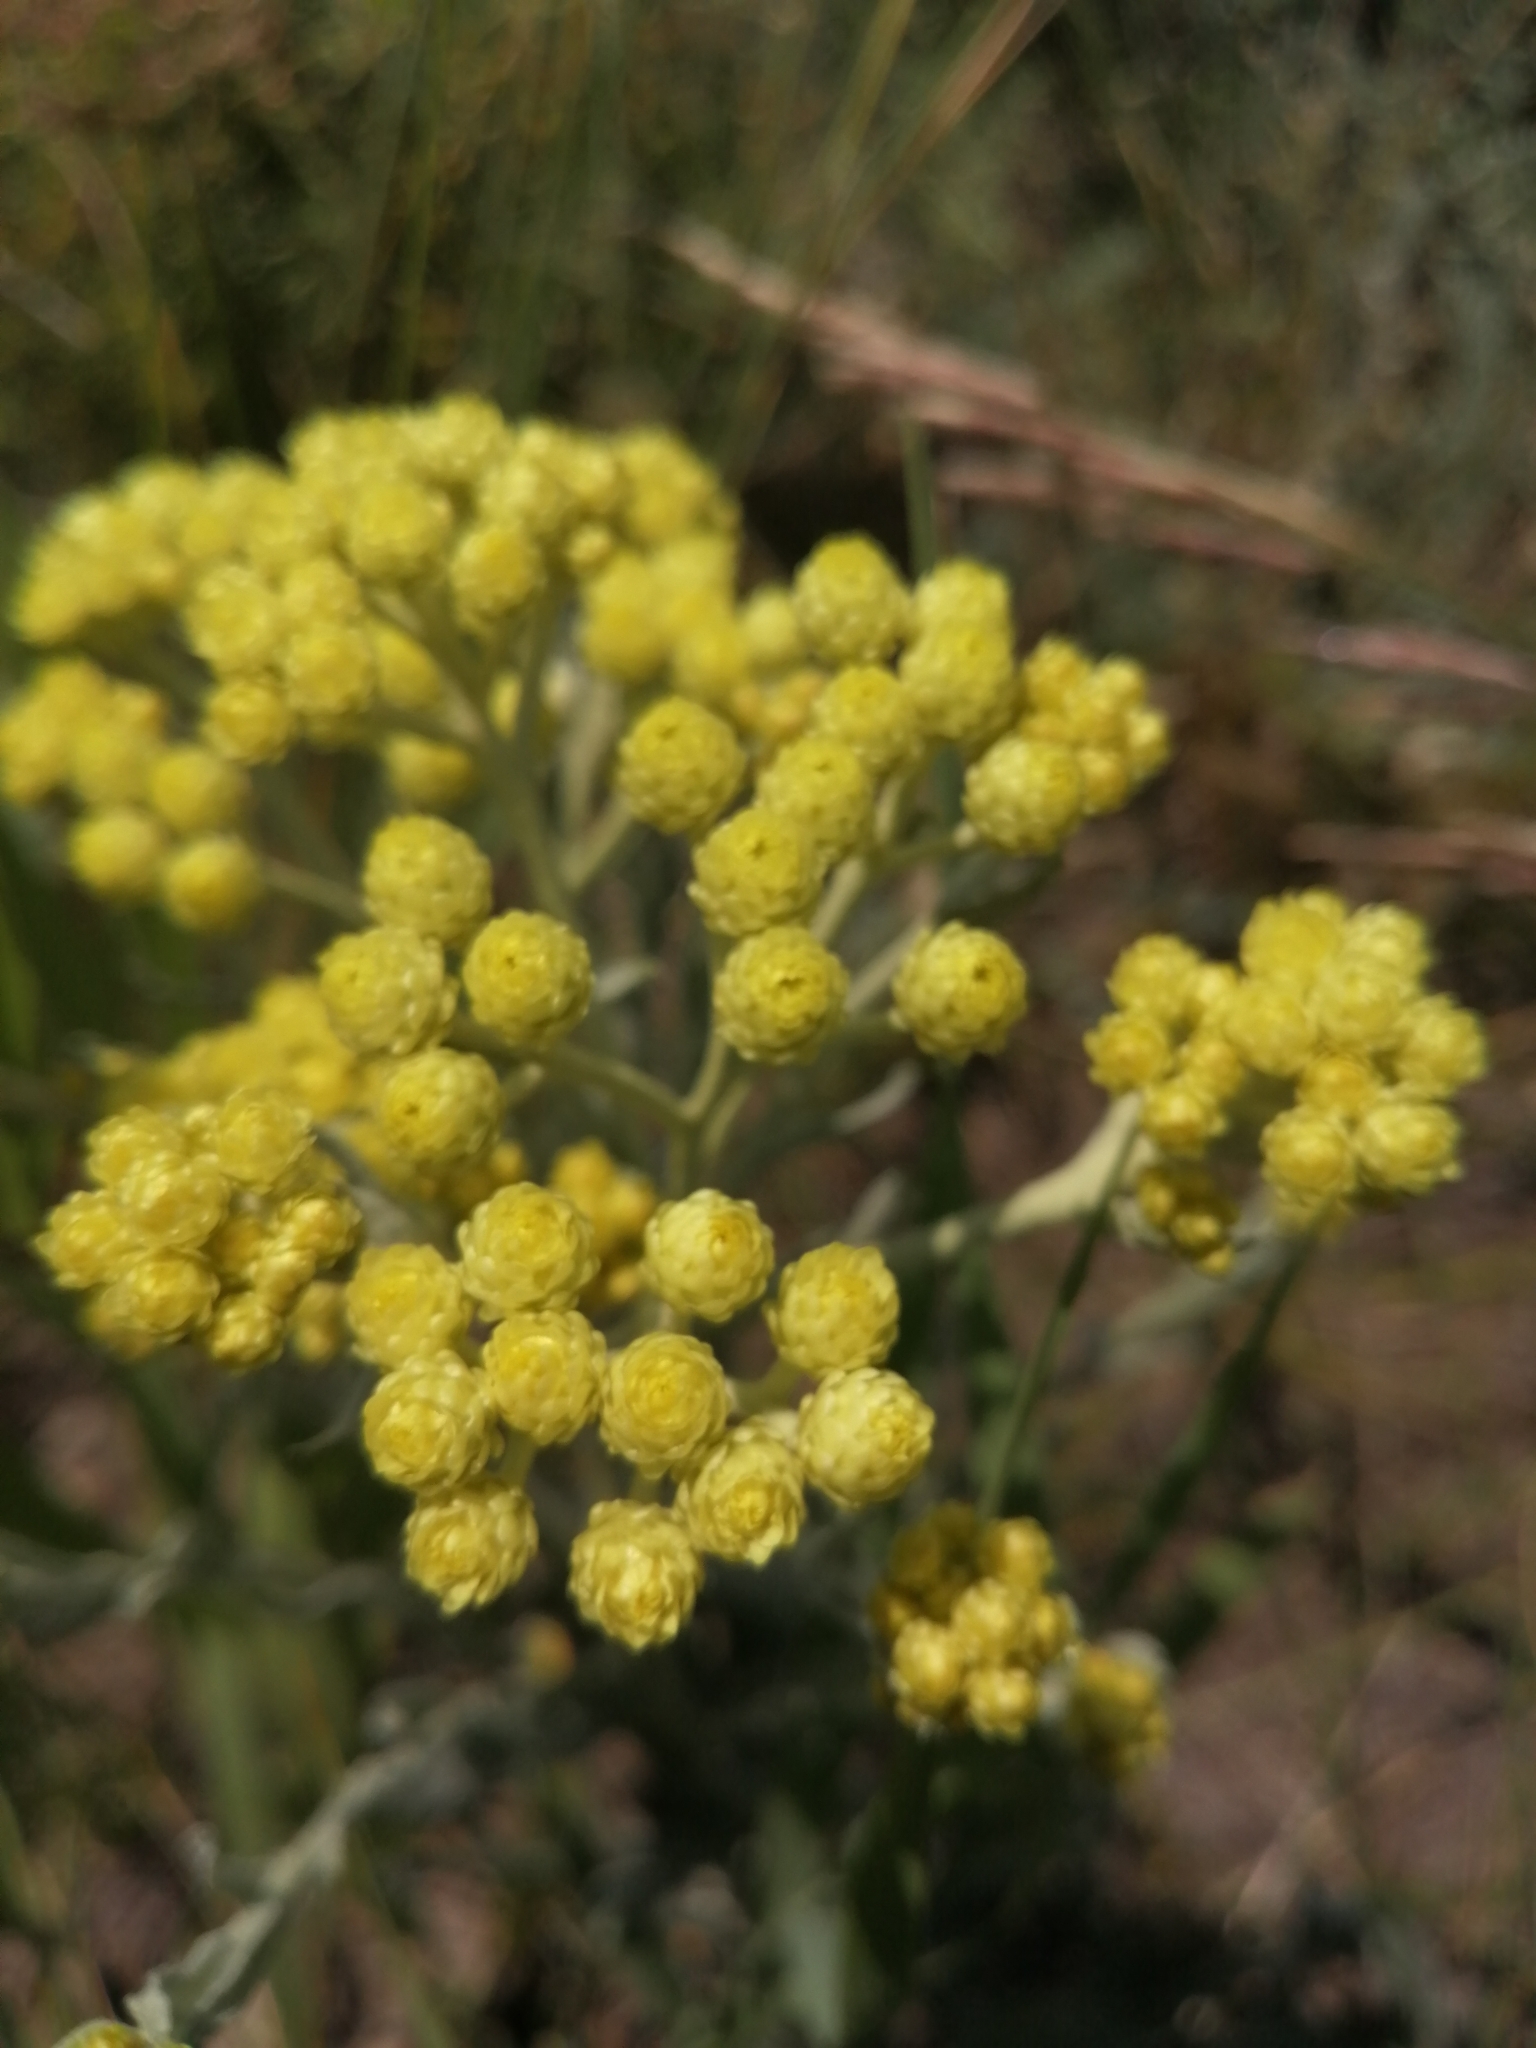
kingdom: Plantae
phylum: Tracheophyta
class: Magnoliopsida
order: Asterales
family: Asteraceae
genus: Helichrysum
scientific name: Helichrysum arenarium
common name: Strawflower
